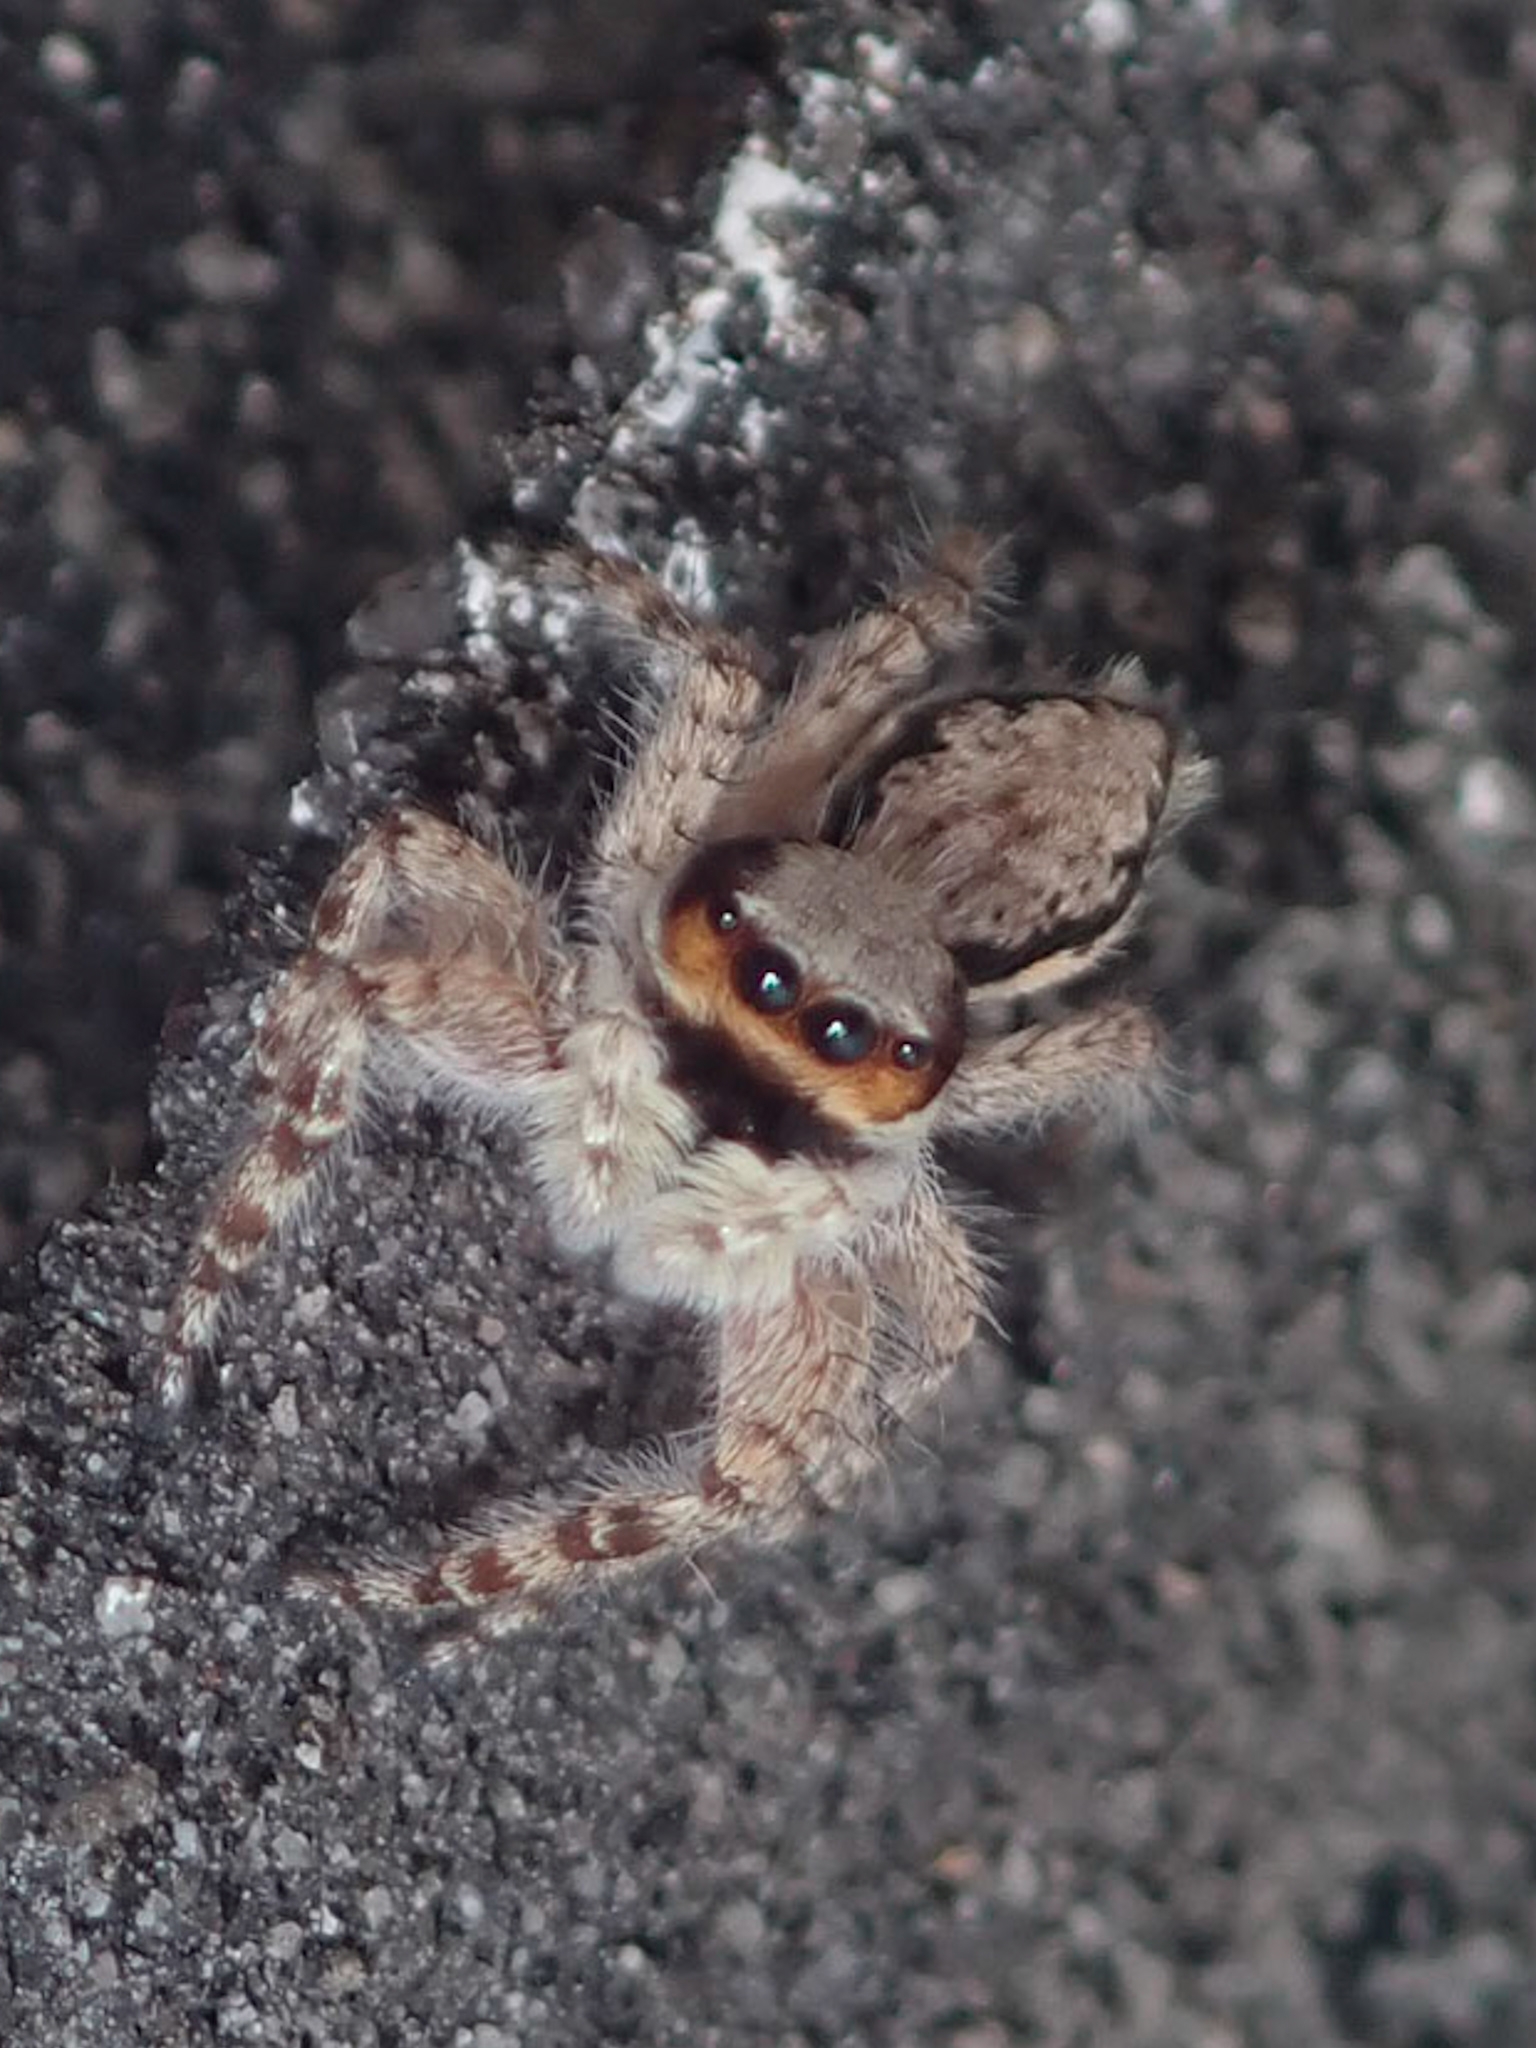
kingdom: Animalia
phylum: Arthropoda
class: Arachnida
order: Araneae
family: Salticidae
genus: Menemerus
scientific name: Menemerus bivittatus
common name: Gray wall jumper
